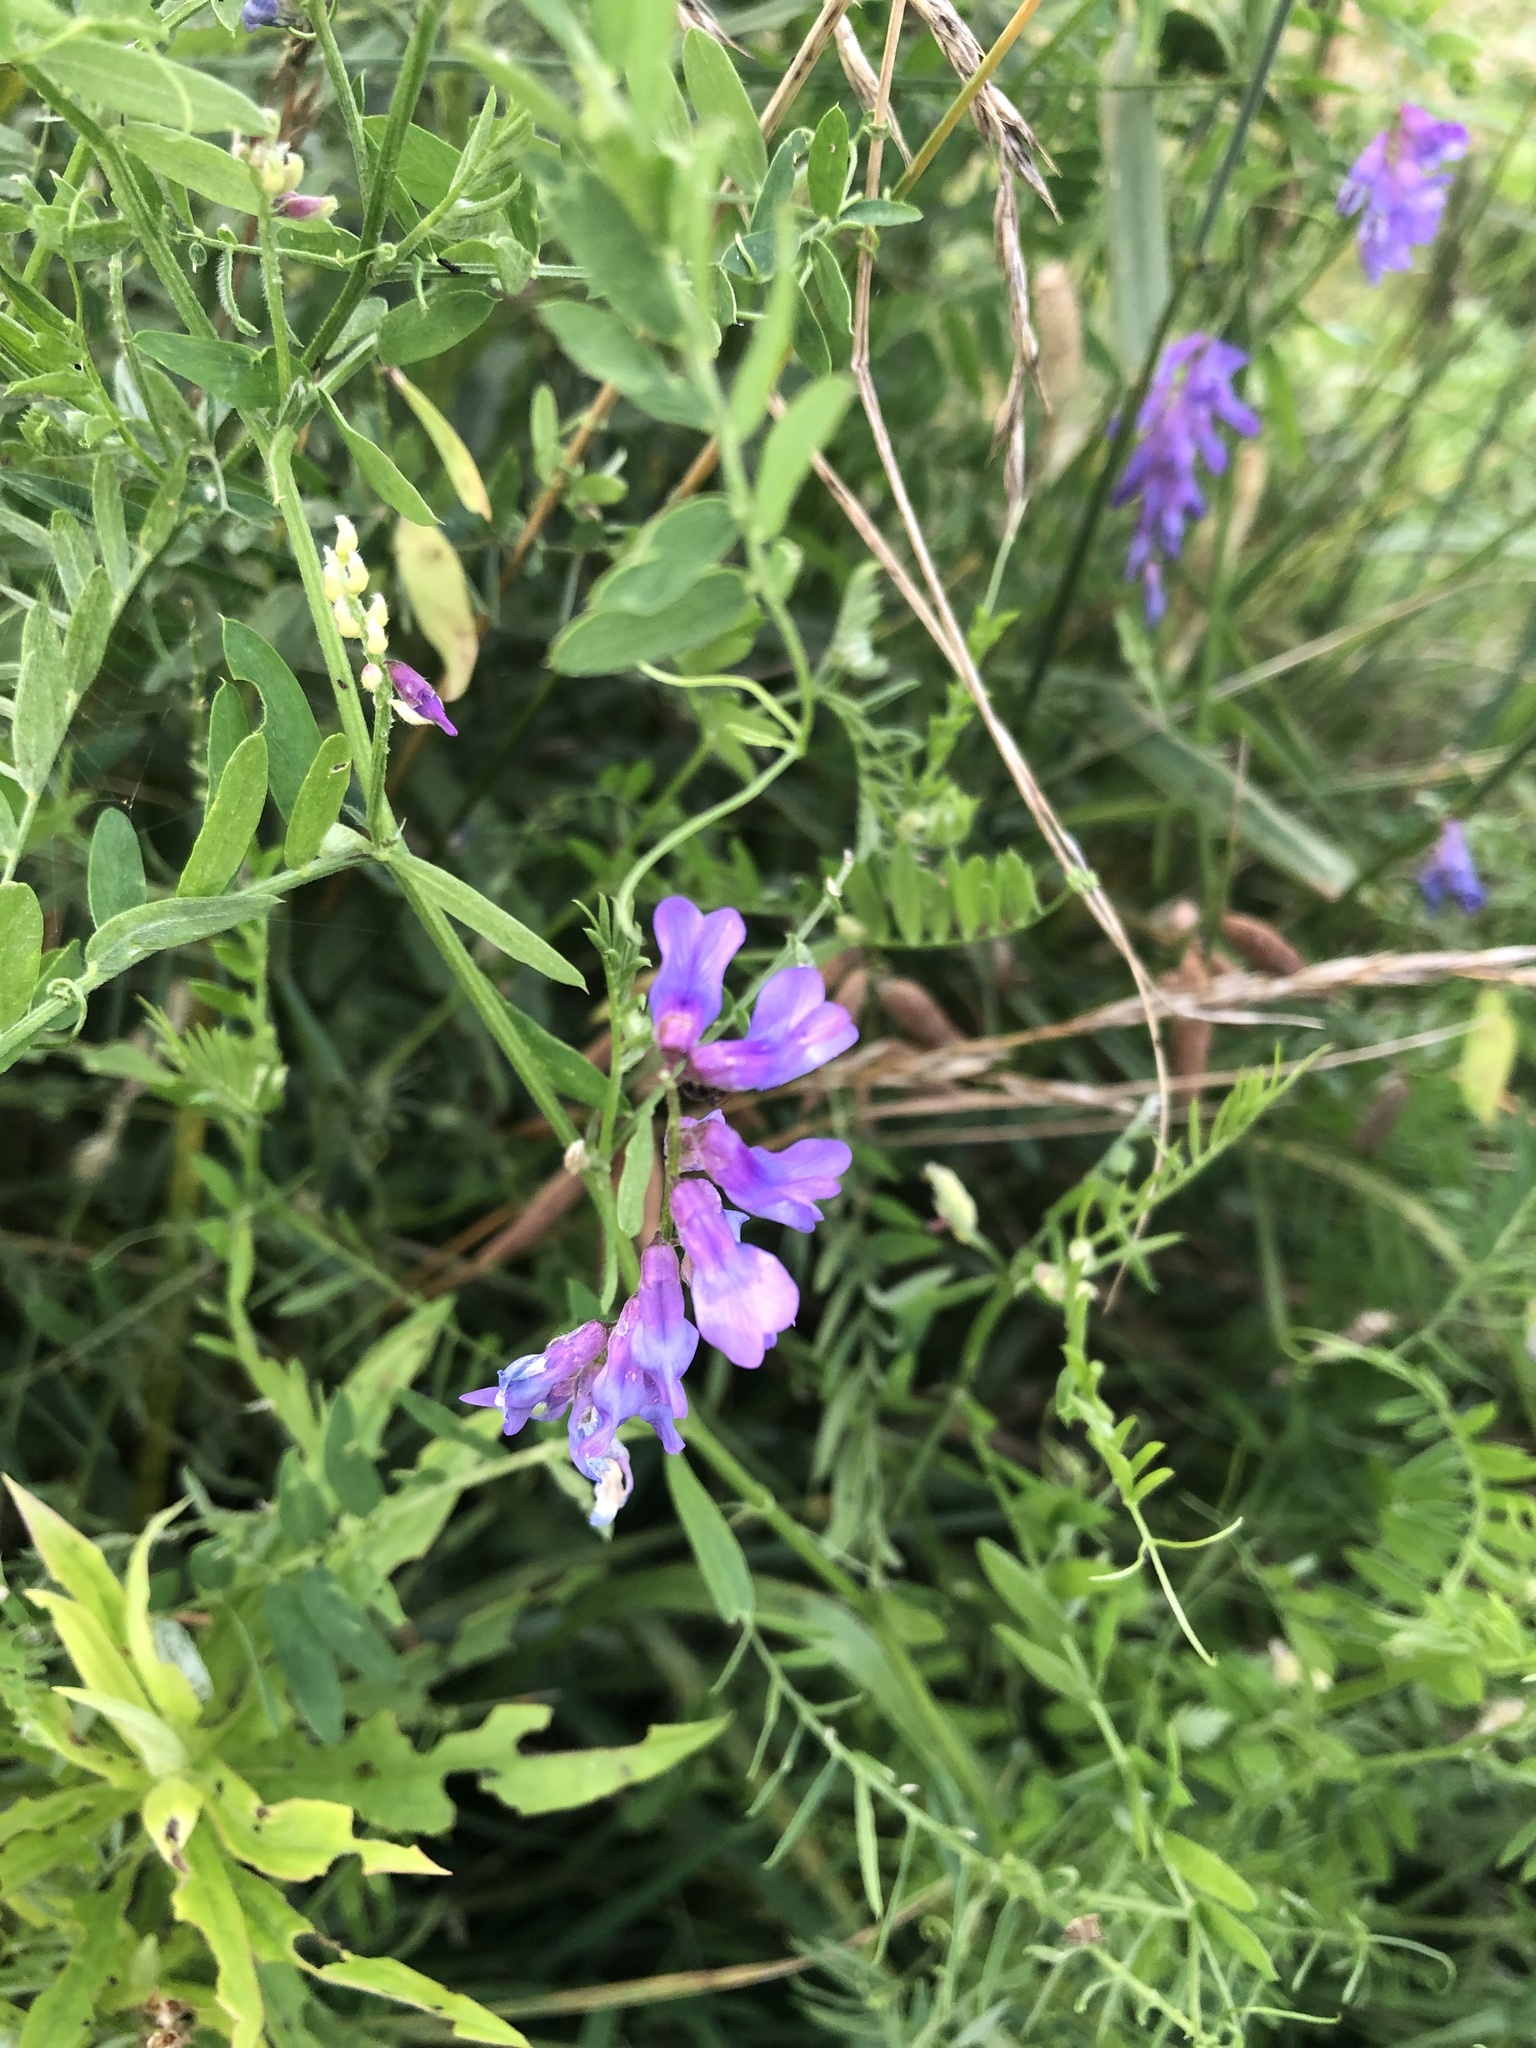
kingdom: Plantae
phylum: Tracheophyta
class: Magnoliopsida
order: Fabales
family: Fabaceae
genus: Vicia
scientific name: Vicia cracca
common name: Bird vetch
